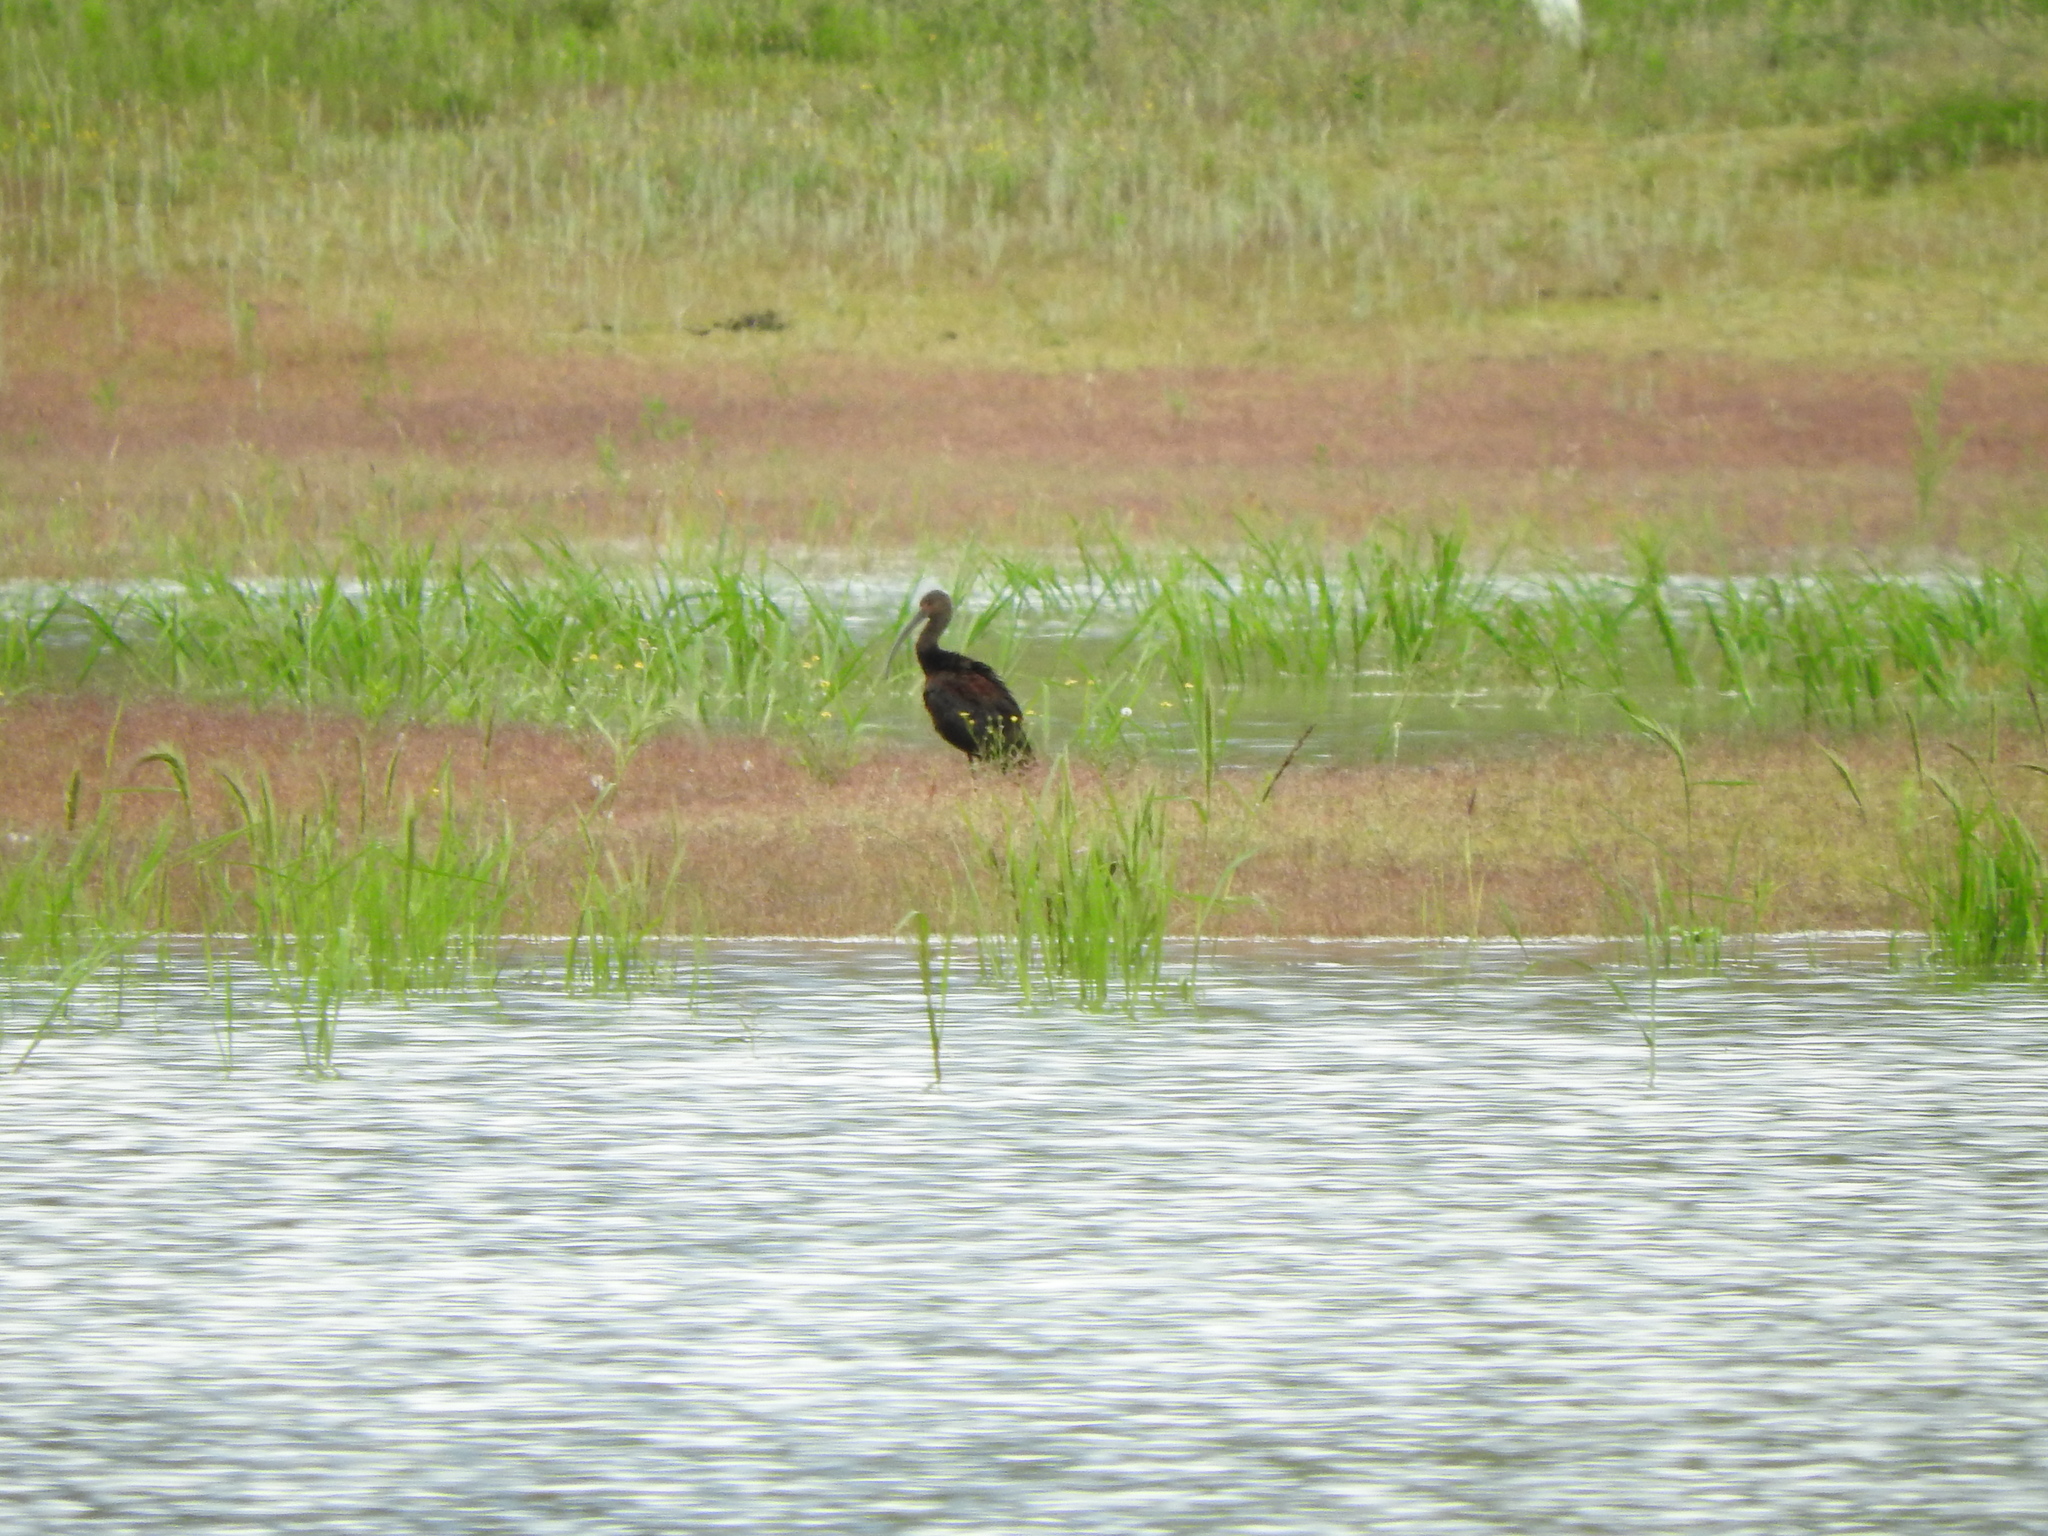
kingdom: Animalia
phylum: Chordata
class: Aves
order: Pelecaniformes
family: Threskiornithidae
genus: Plegadis
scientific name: Plegadis chihi
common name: White-faced ibis
